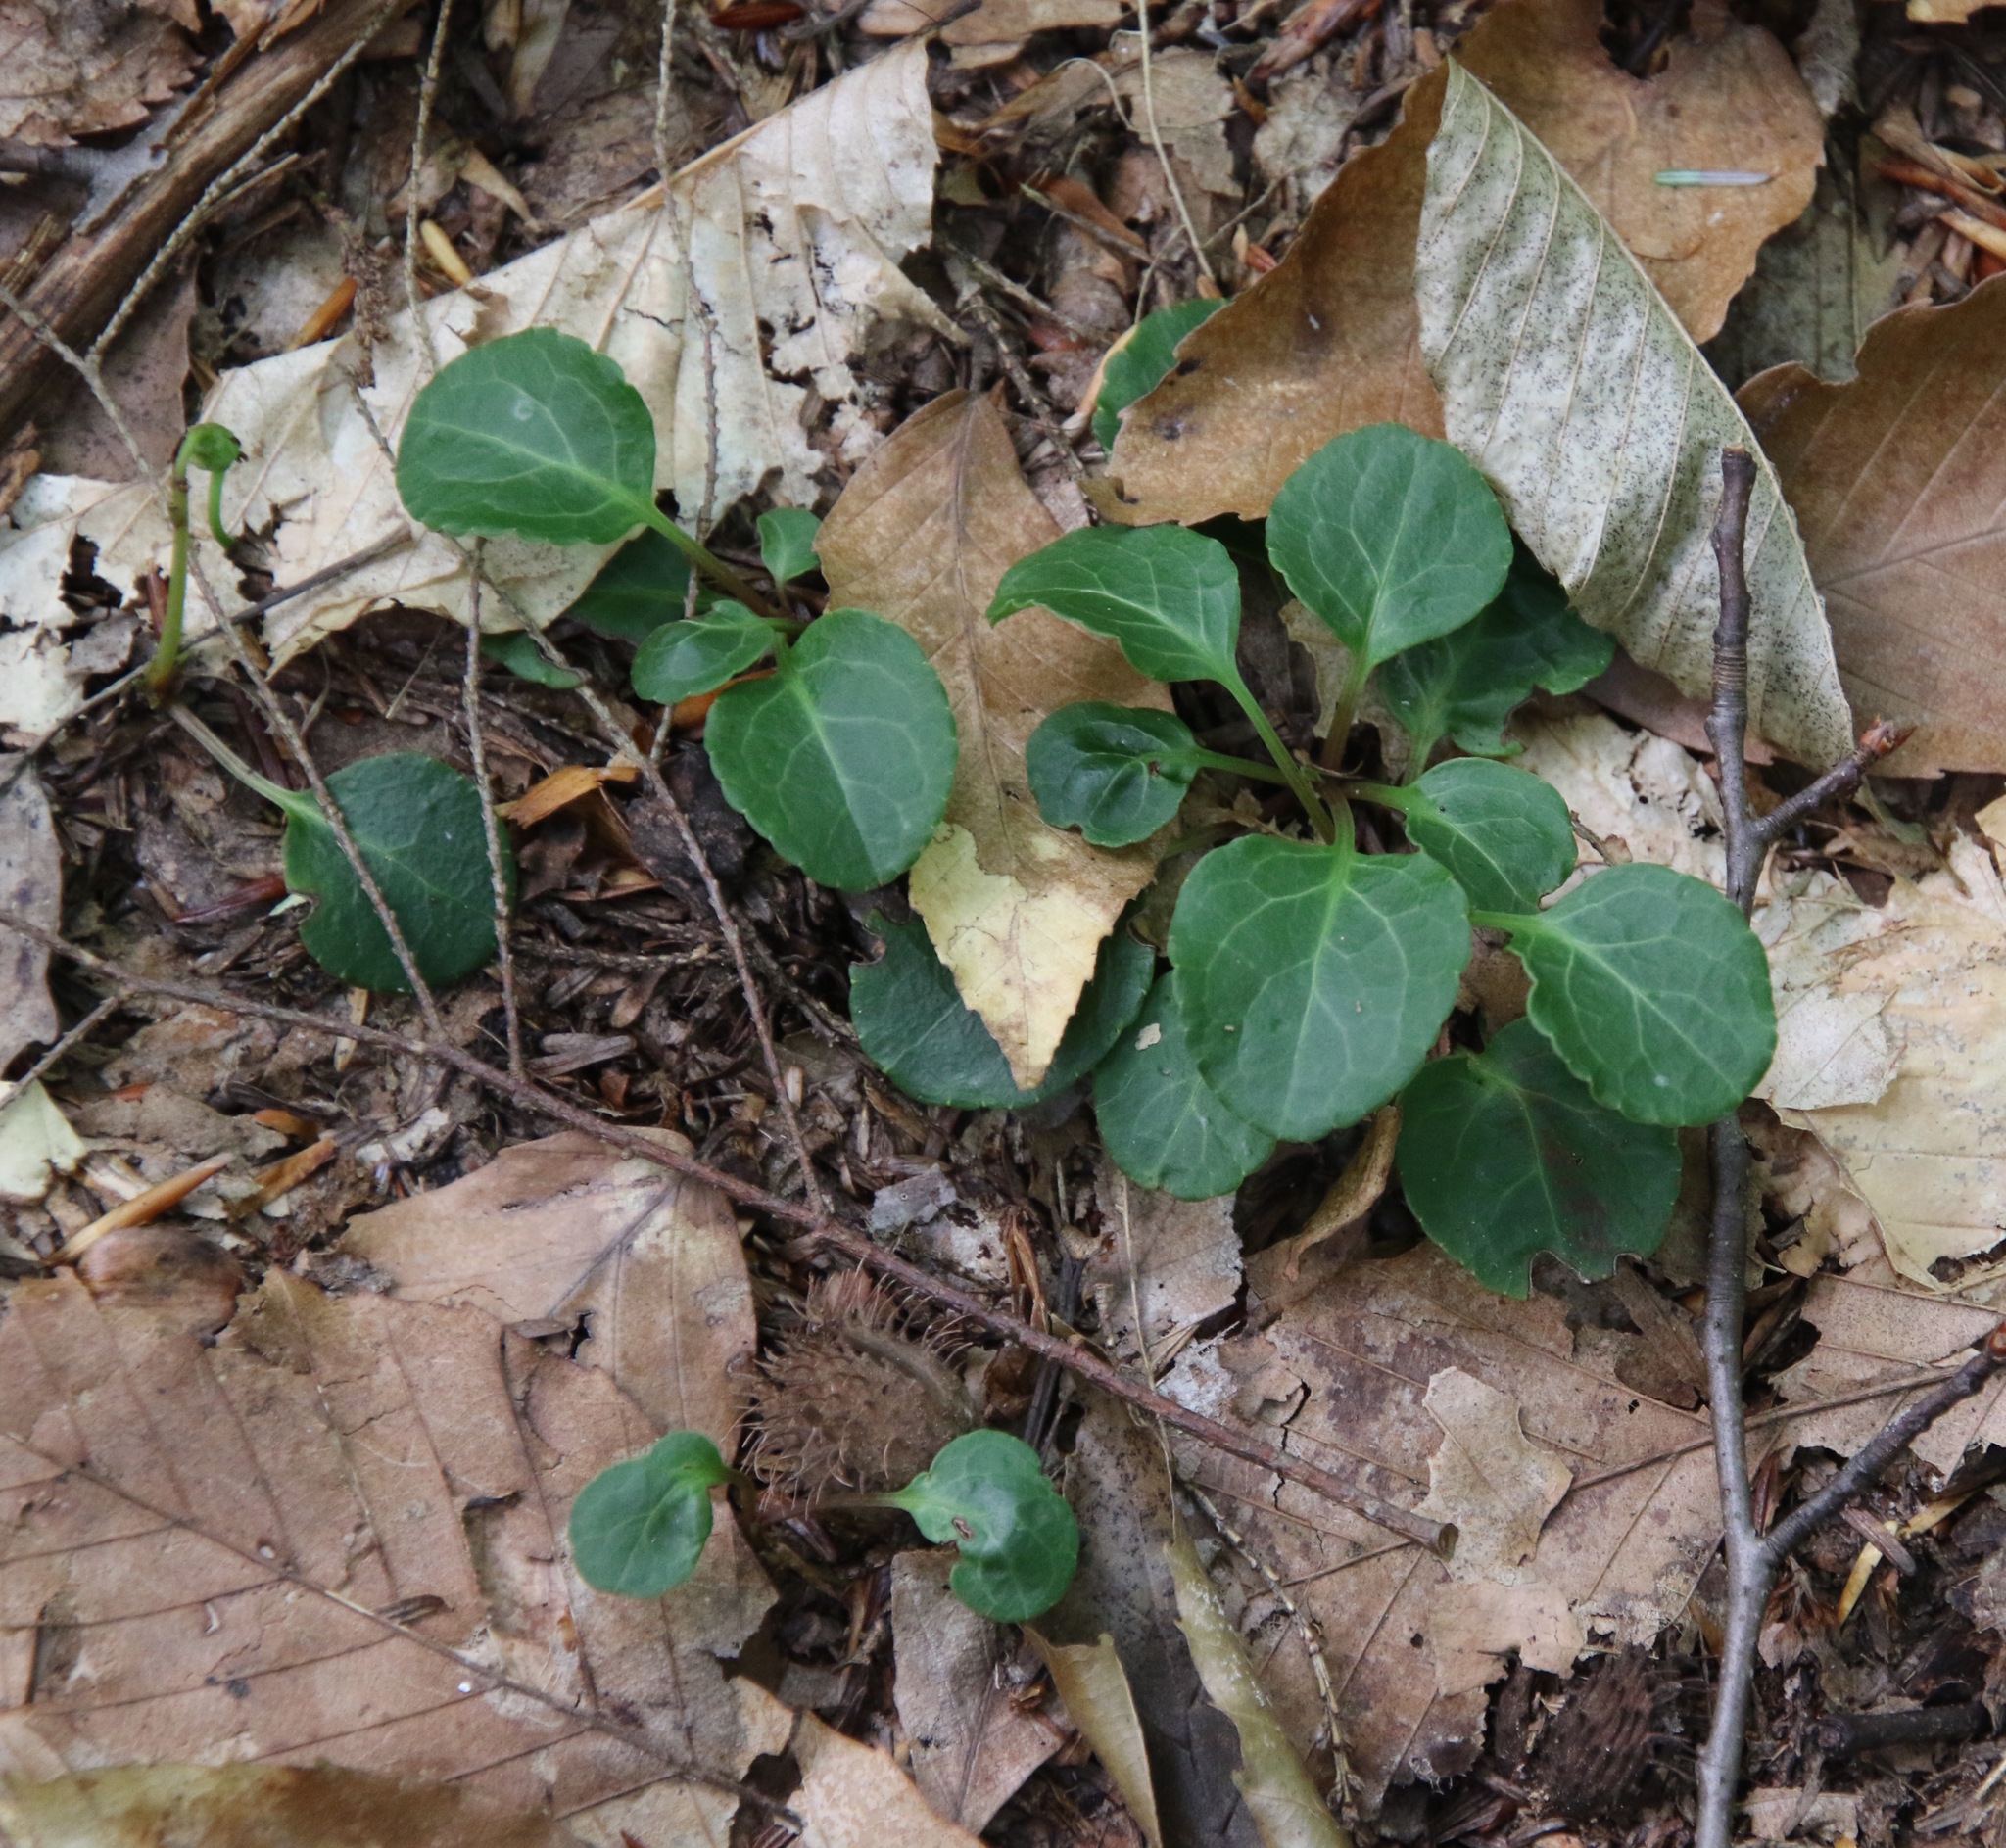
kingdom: Plantae
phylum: Tracheophyta
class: Magnoliopsida
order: Ericales
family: Ericaceae
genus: Pyrola
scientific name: Pyrola chlorantha
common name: Green wintergreen
